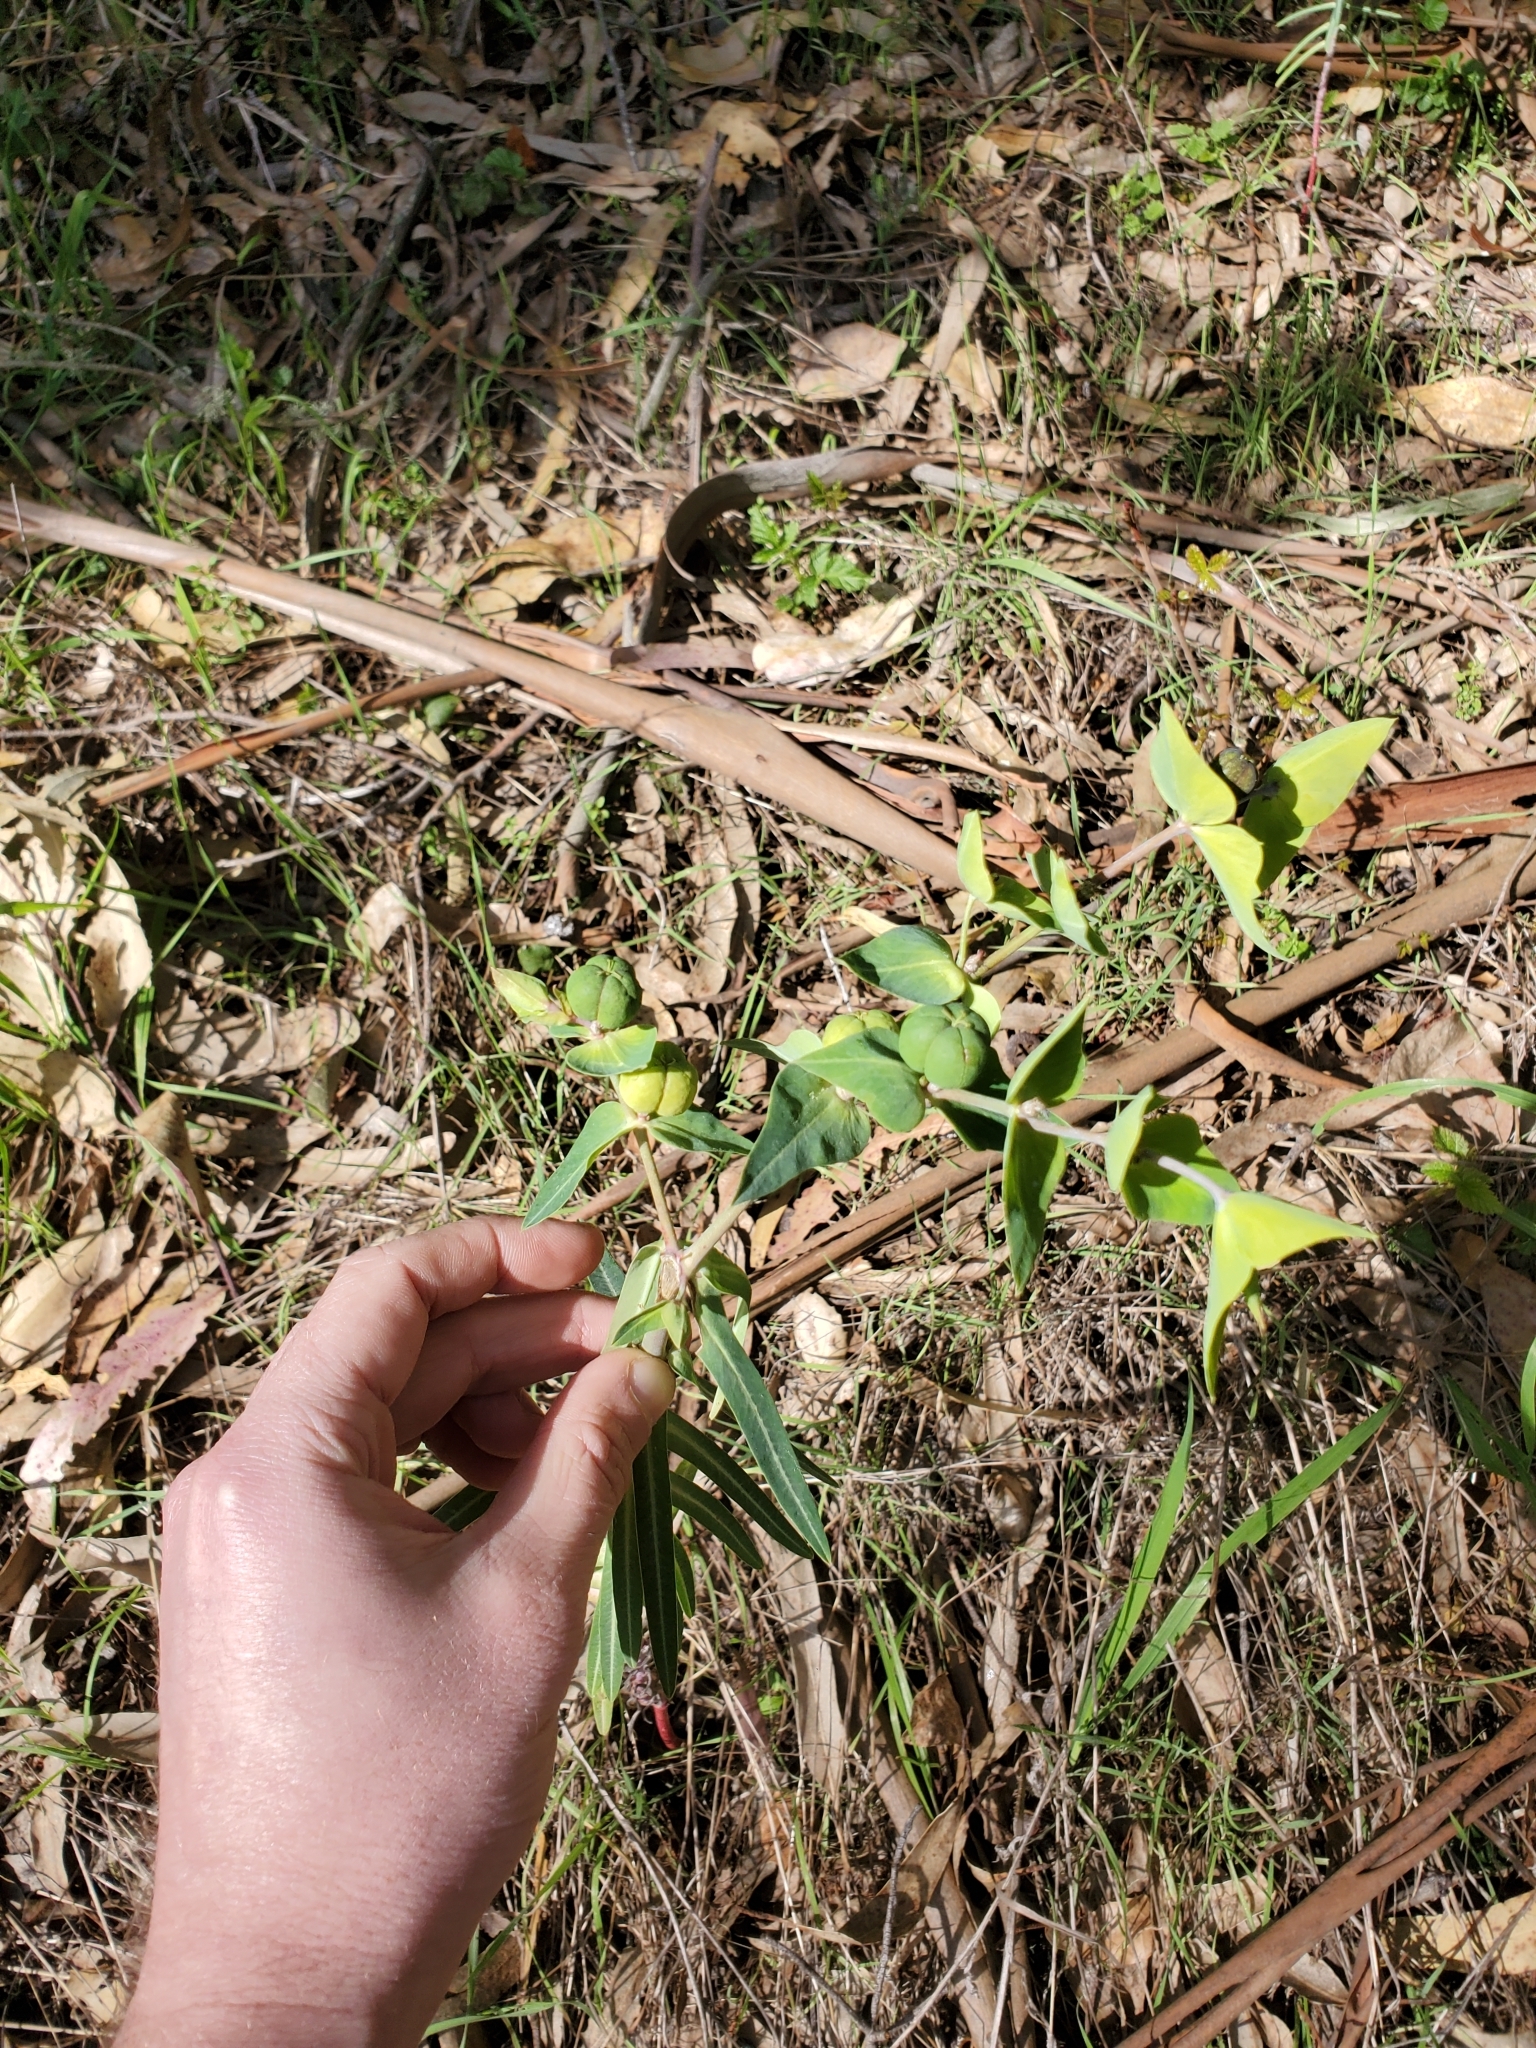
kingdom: Plantae
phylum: Tracheophyta
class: Magnoliopsida
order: Malpighiales
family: Euphorbiaceae
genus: Euphorbia
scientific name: Euphorbia lathyris
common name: Caper spurge
